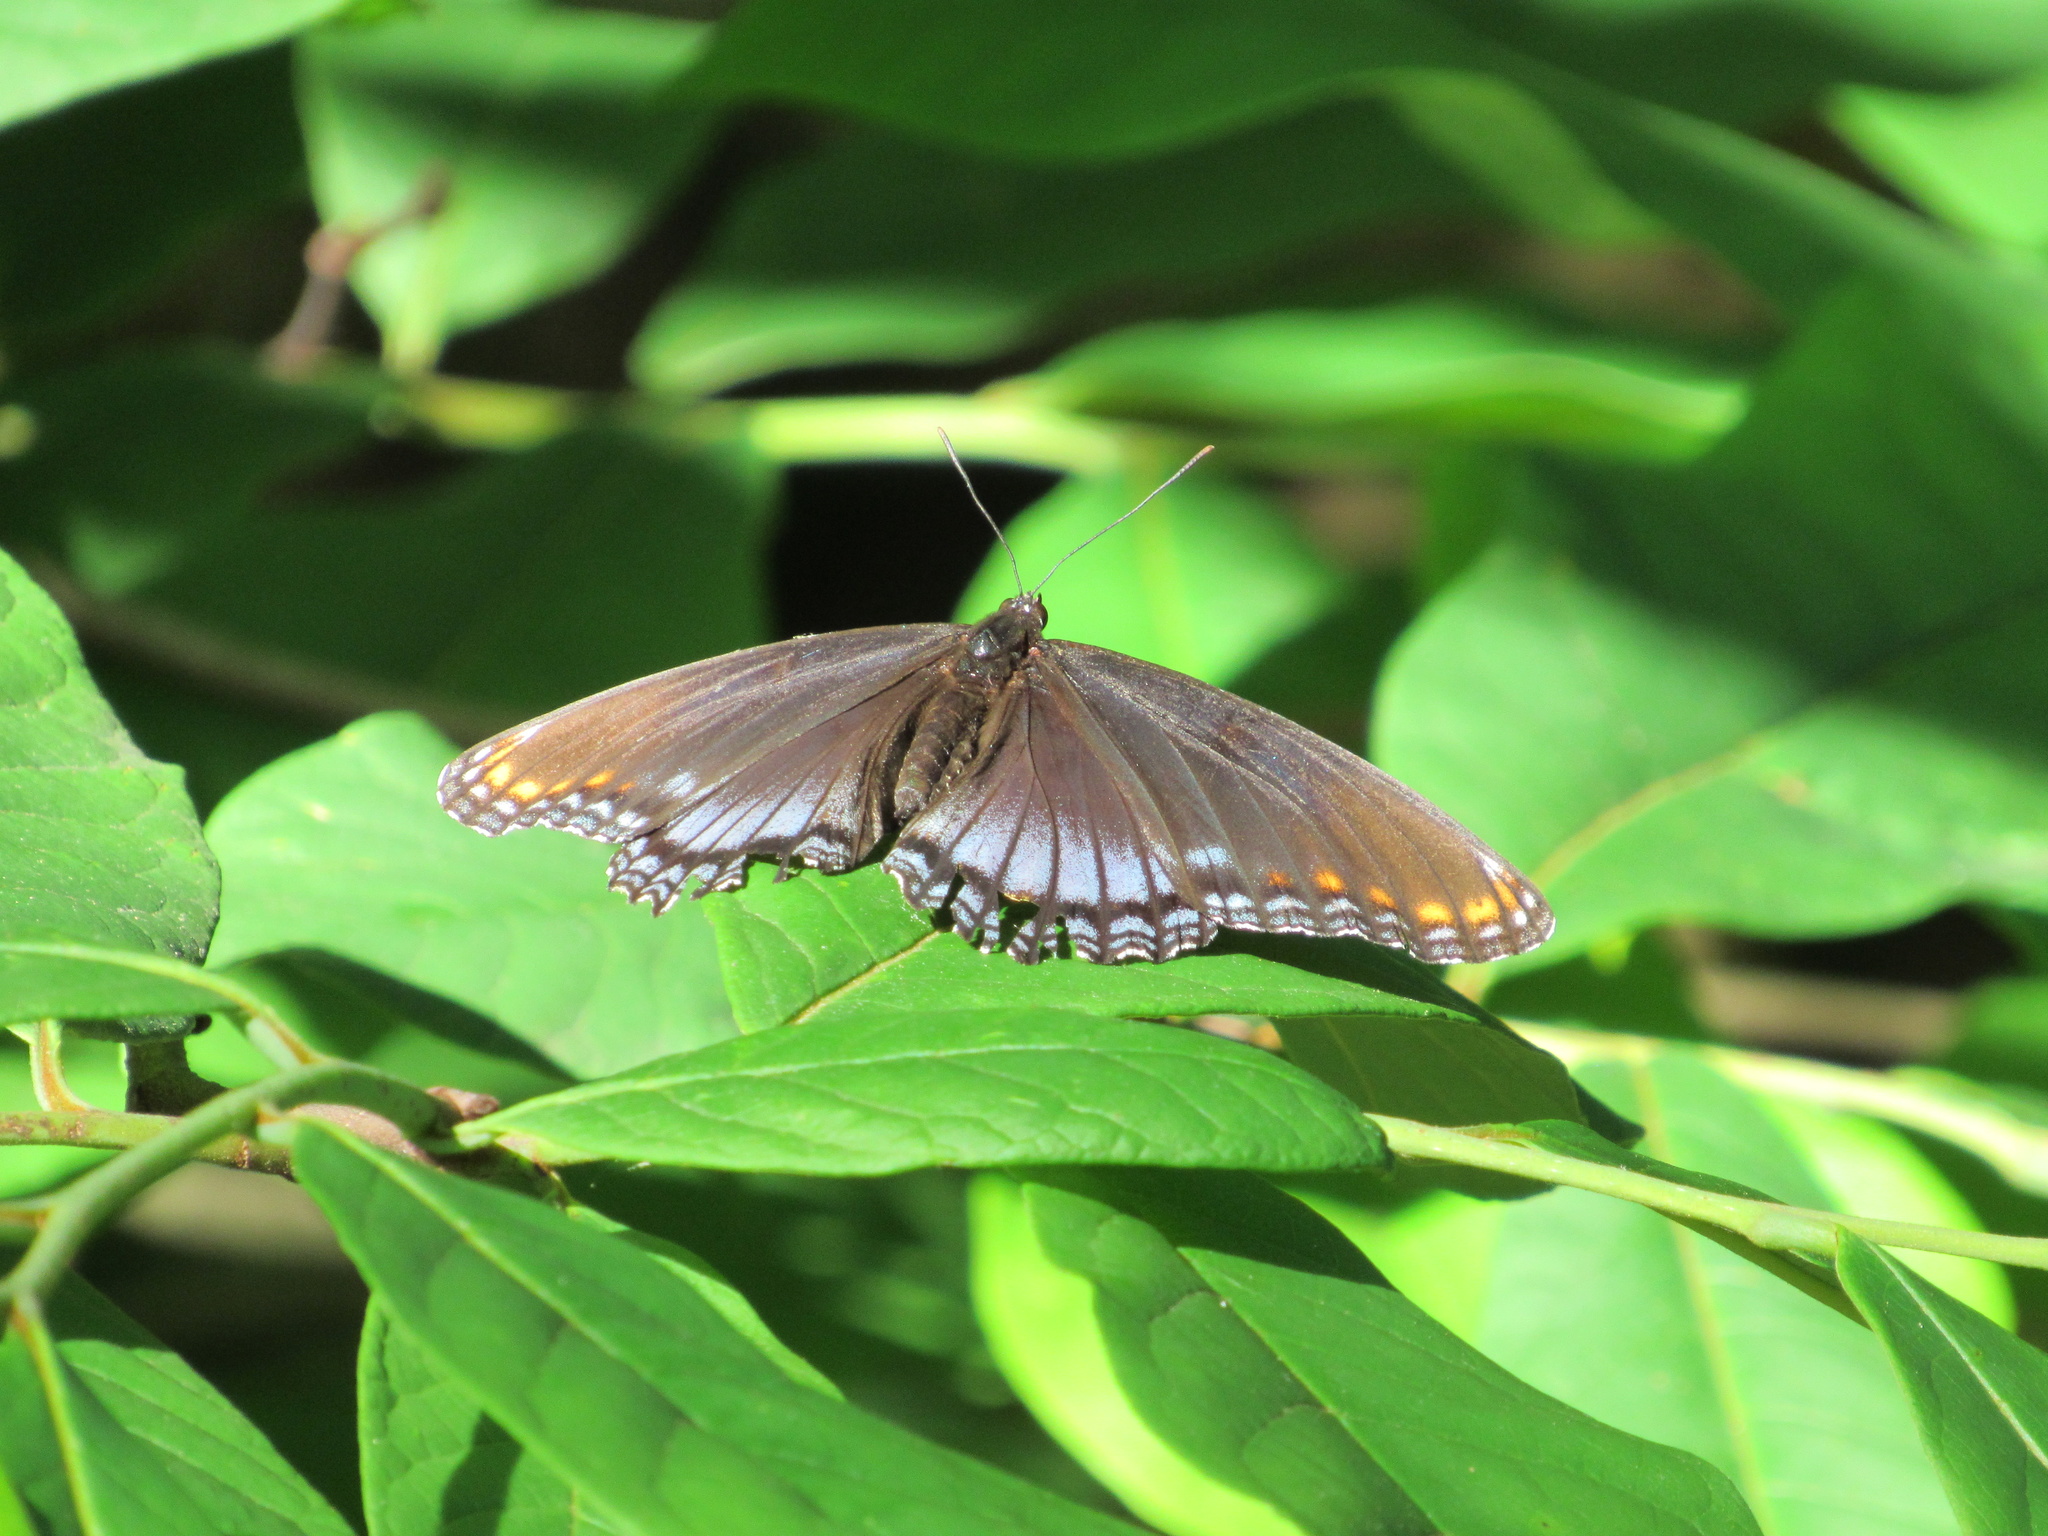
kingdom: Animalia
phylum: Arthropoda
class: Insecta
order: Lepidoptera
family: Nymphalidae
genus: Limenitis
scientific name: Limenitis astyanax
